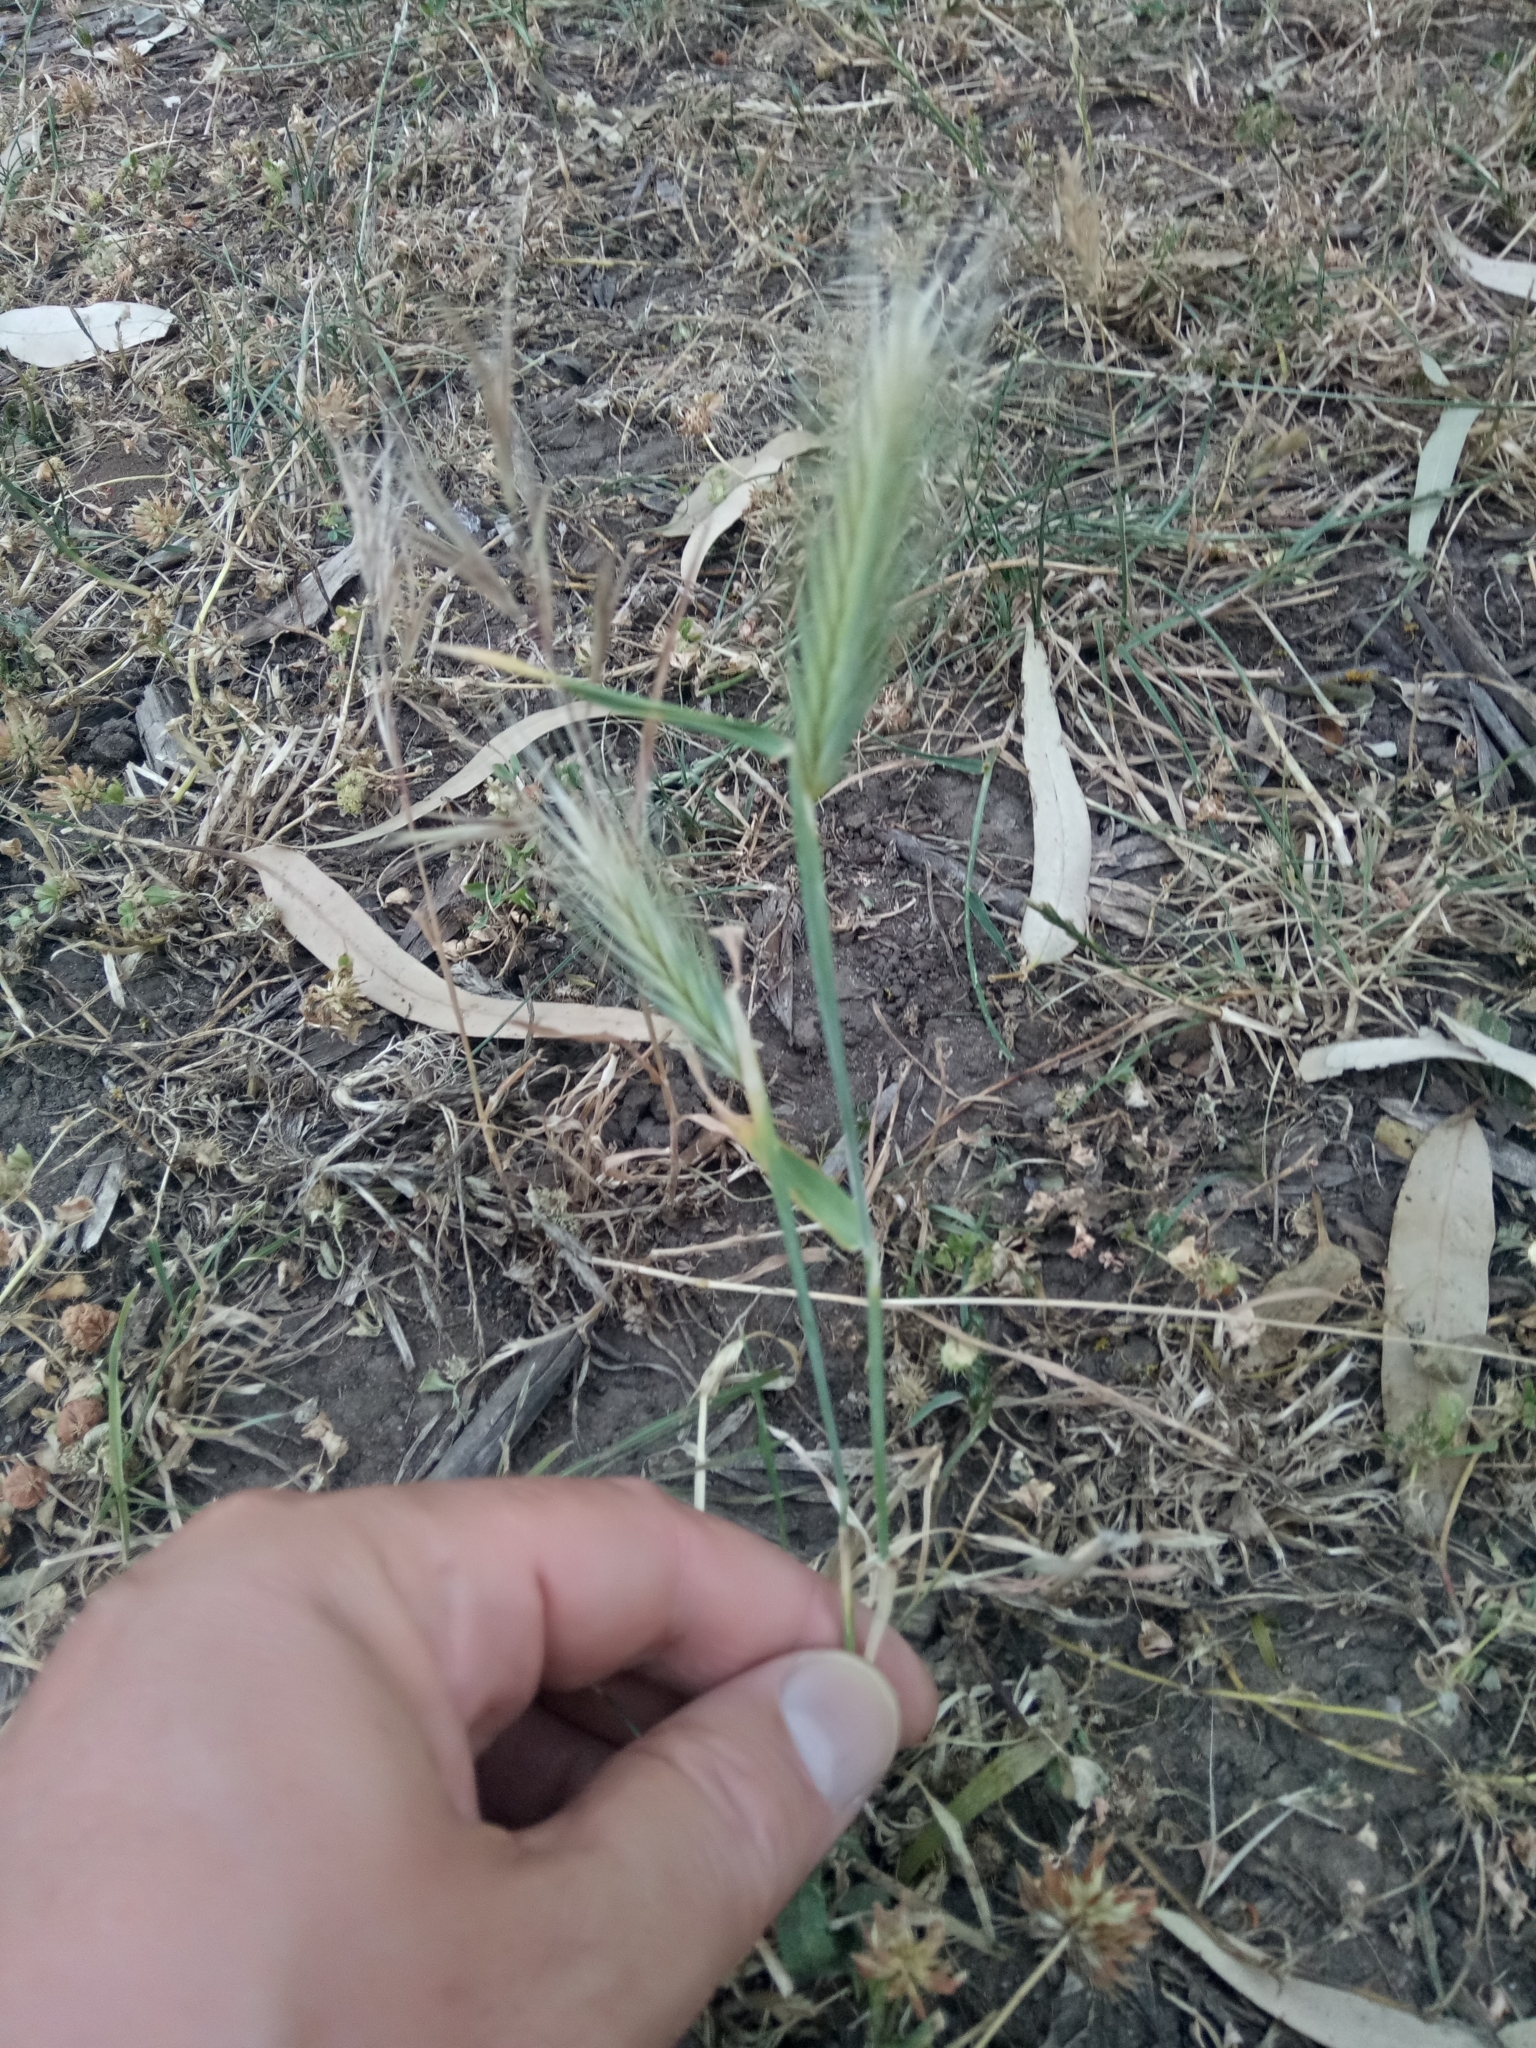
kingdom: Plantae
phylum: Tracheophyta
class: Liliopsida
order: Poales
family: Poaceae
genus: Hordeum
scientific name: Hordeum murinum
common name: Wall barley
